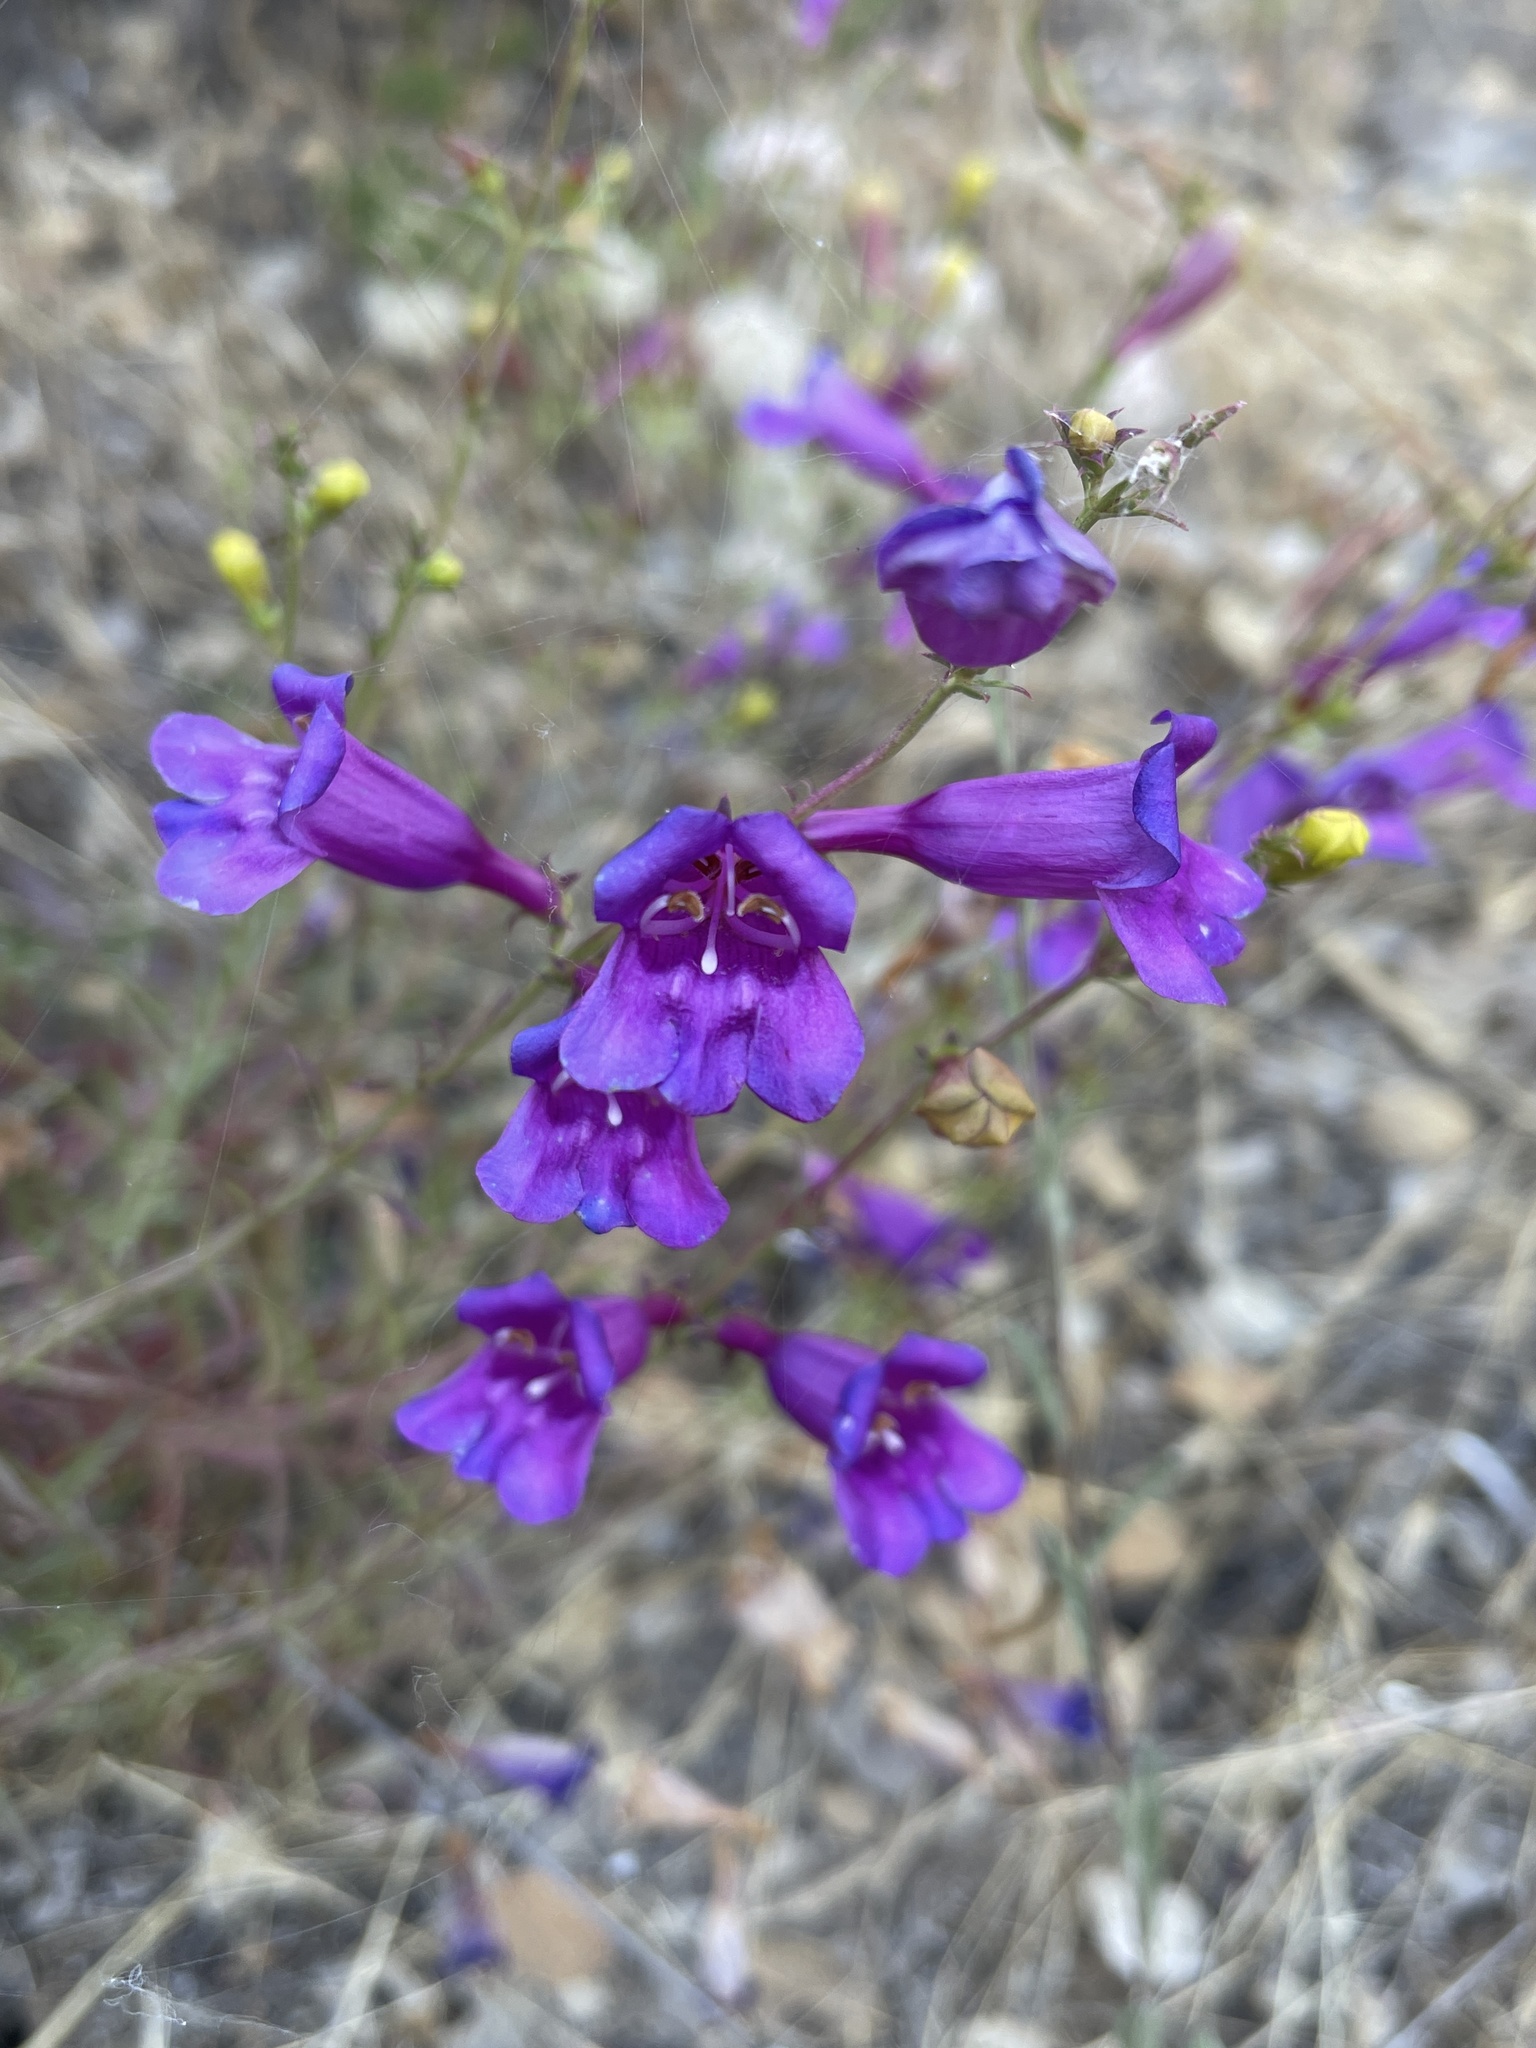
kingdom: Plantae
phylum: Tracheophyta
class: Magnoliopsida
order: Lamiales
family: Plantaginaceae
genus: Penstemon
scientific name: Penstemon heterophyllus
